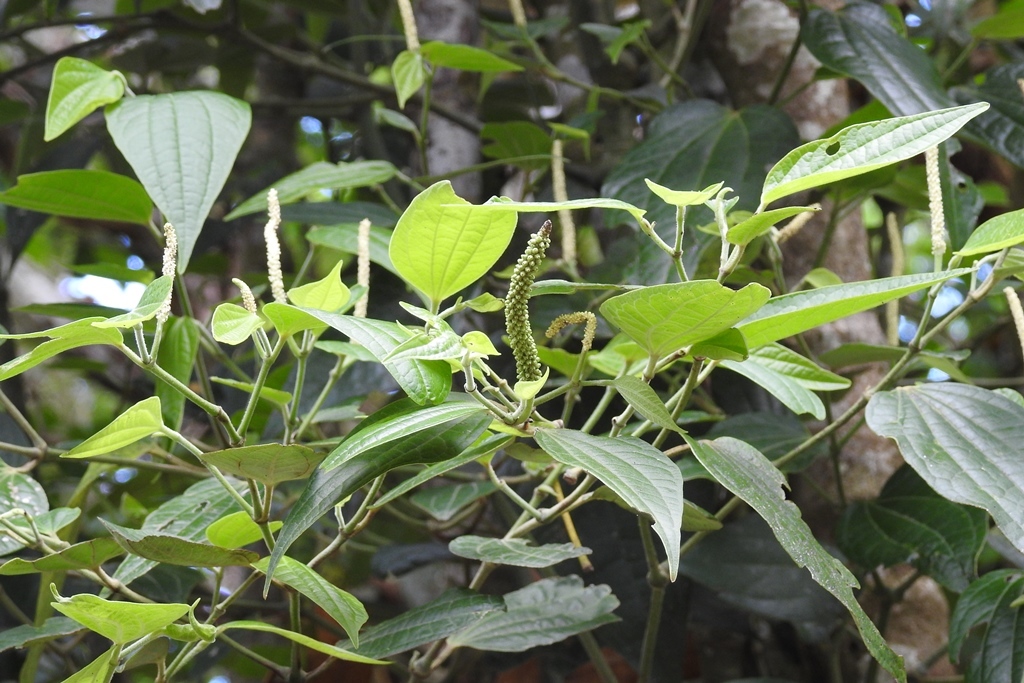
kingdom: Plantae
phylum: Tracheophyta
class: Magnoliopsida
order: Piperales
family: Piperaceae
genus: Piper
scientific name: Piper amalago
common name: Pepper-elder
